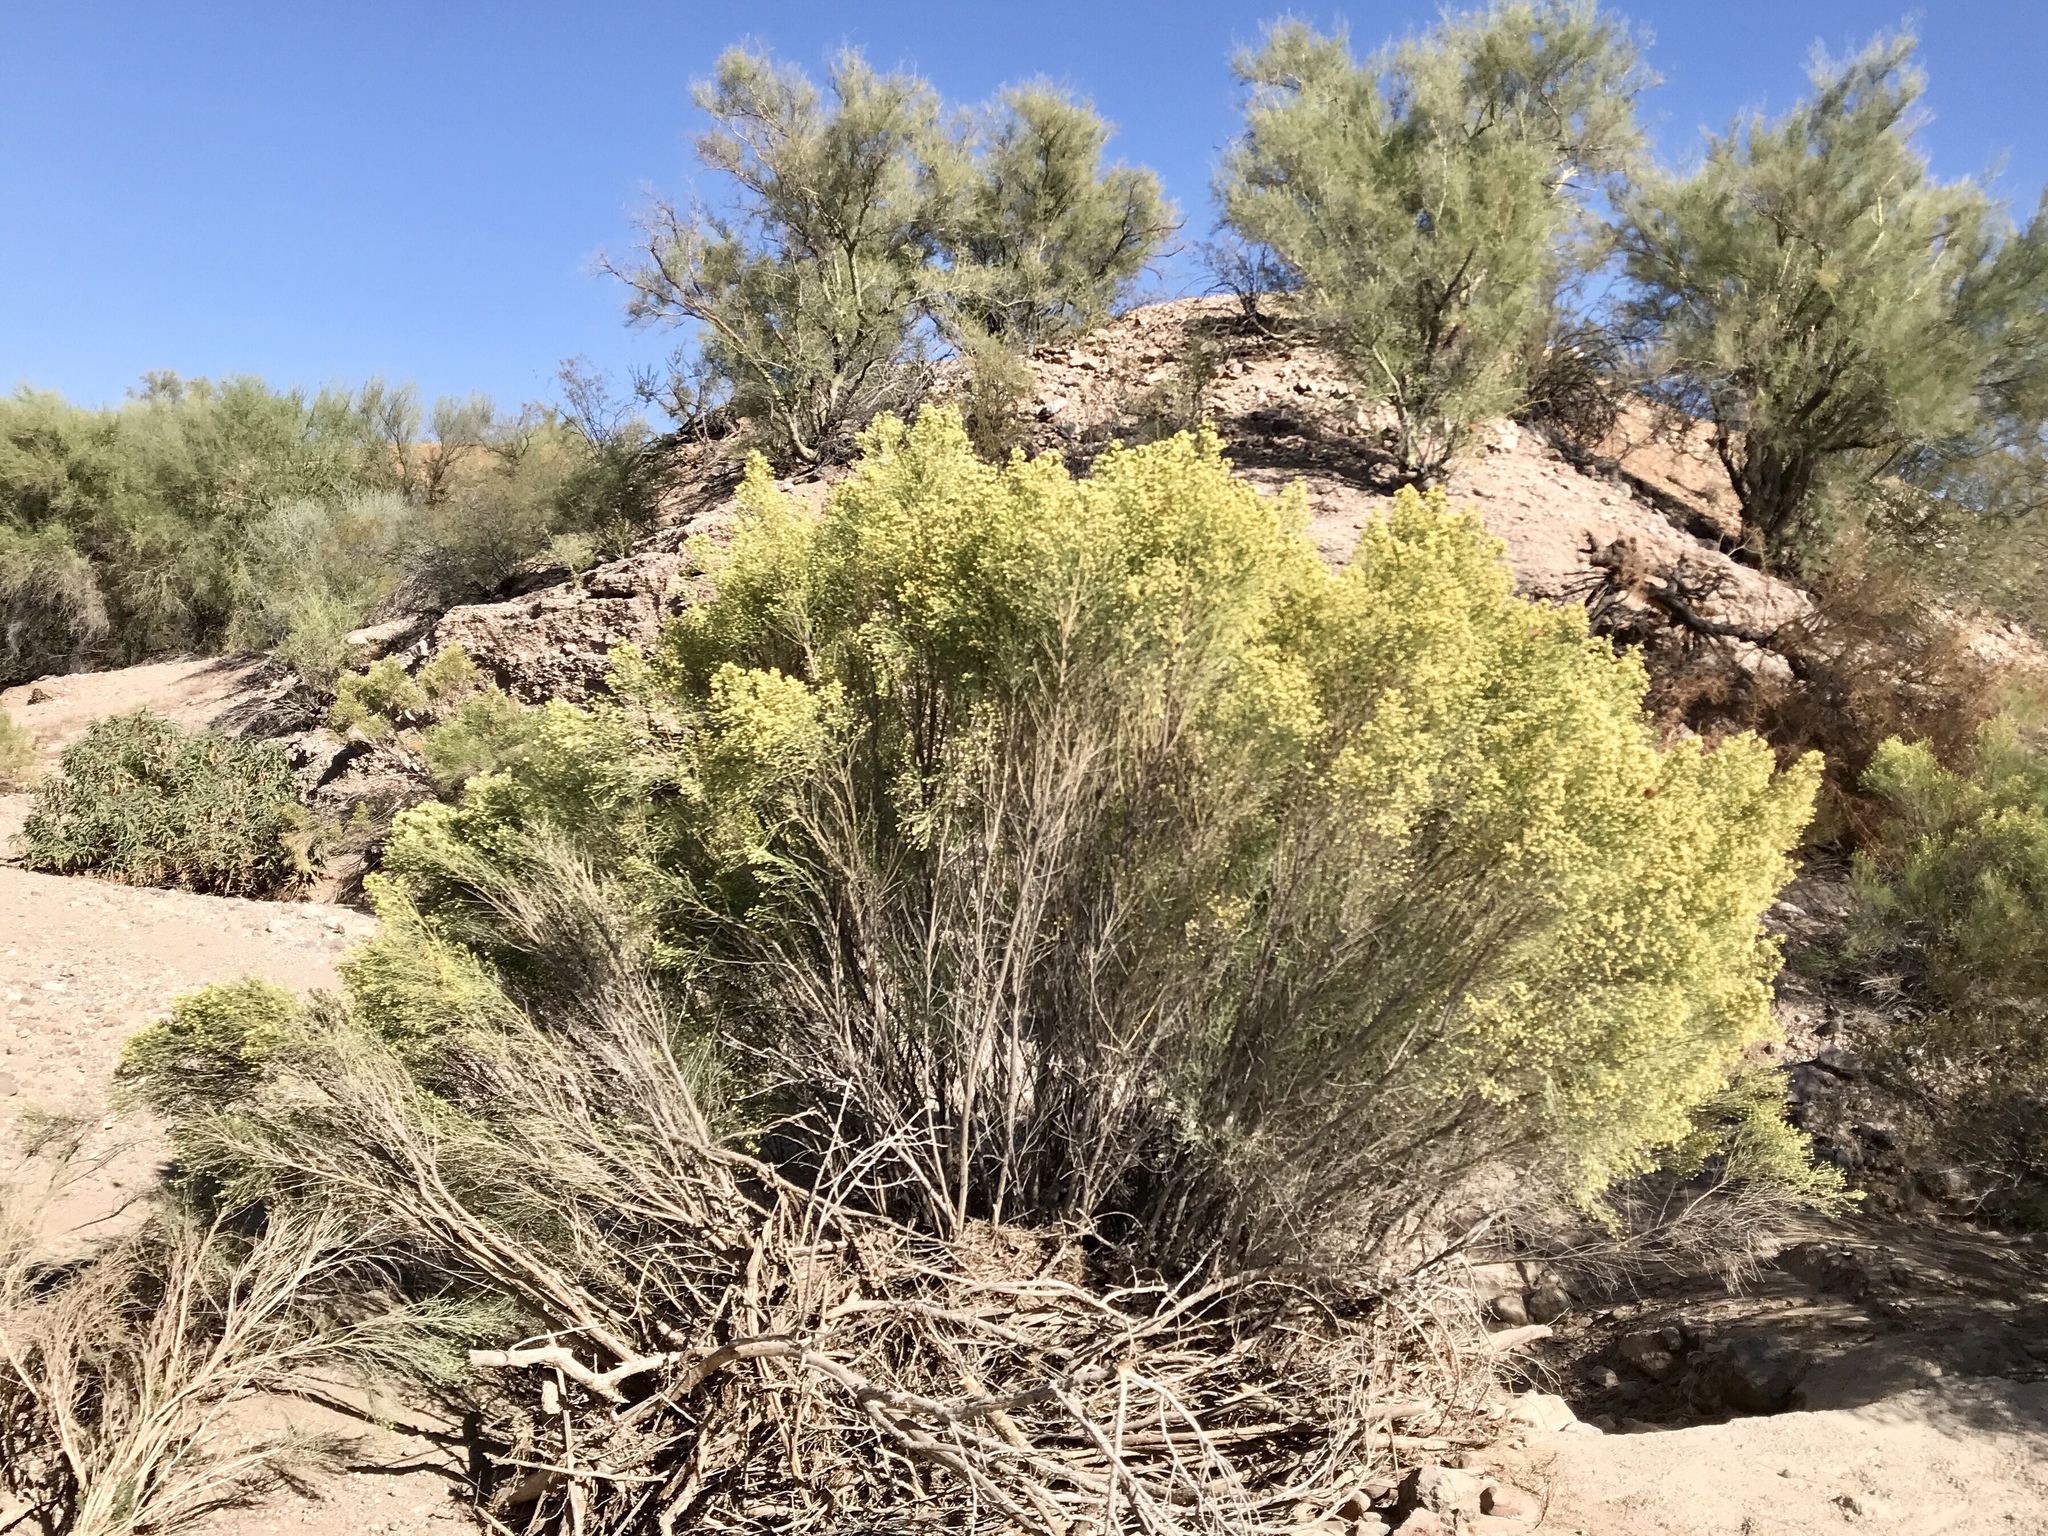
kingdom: Plantae
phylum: Tracheophyta
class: Magnoliopsida
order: Asterales
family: Asteraceae
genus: Baccharis
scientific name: Baccharis sarothroides
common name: Desert-broom
